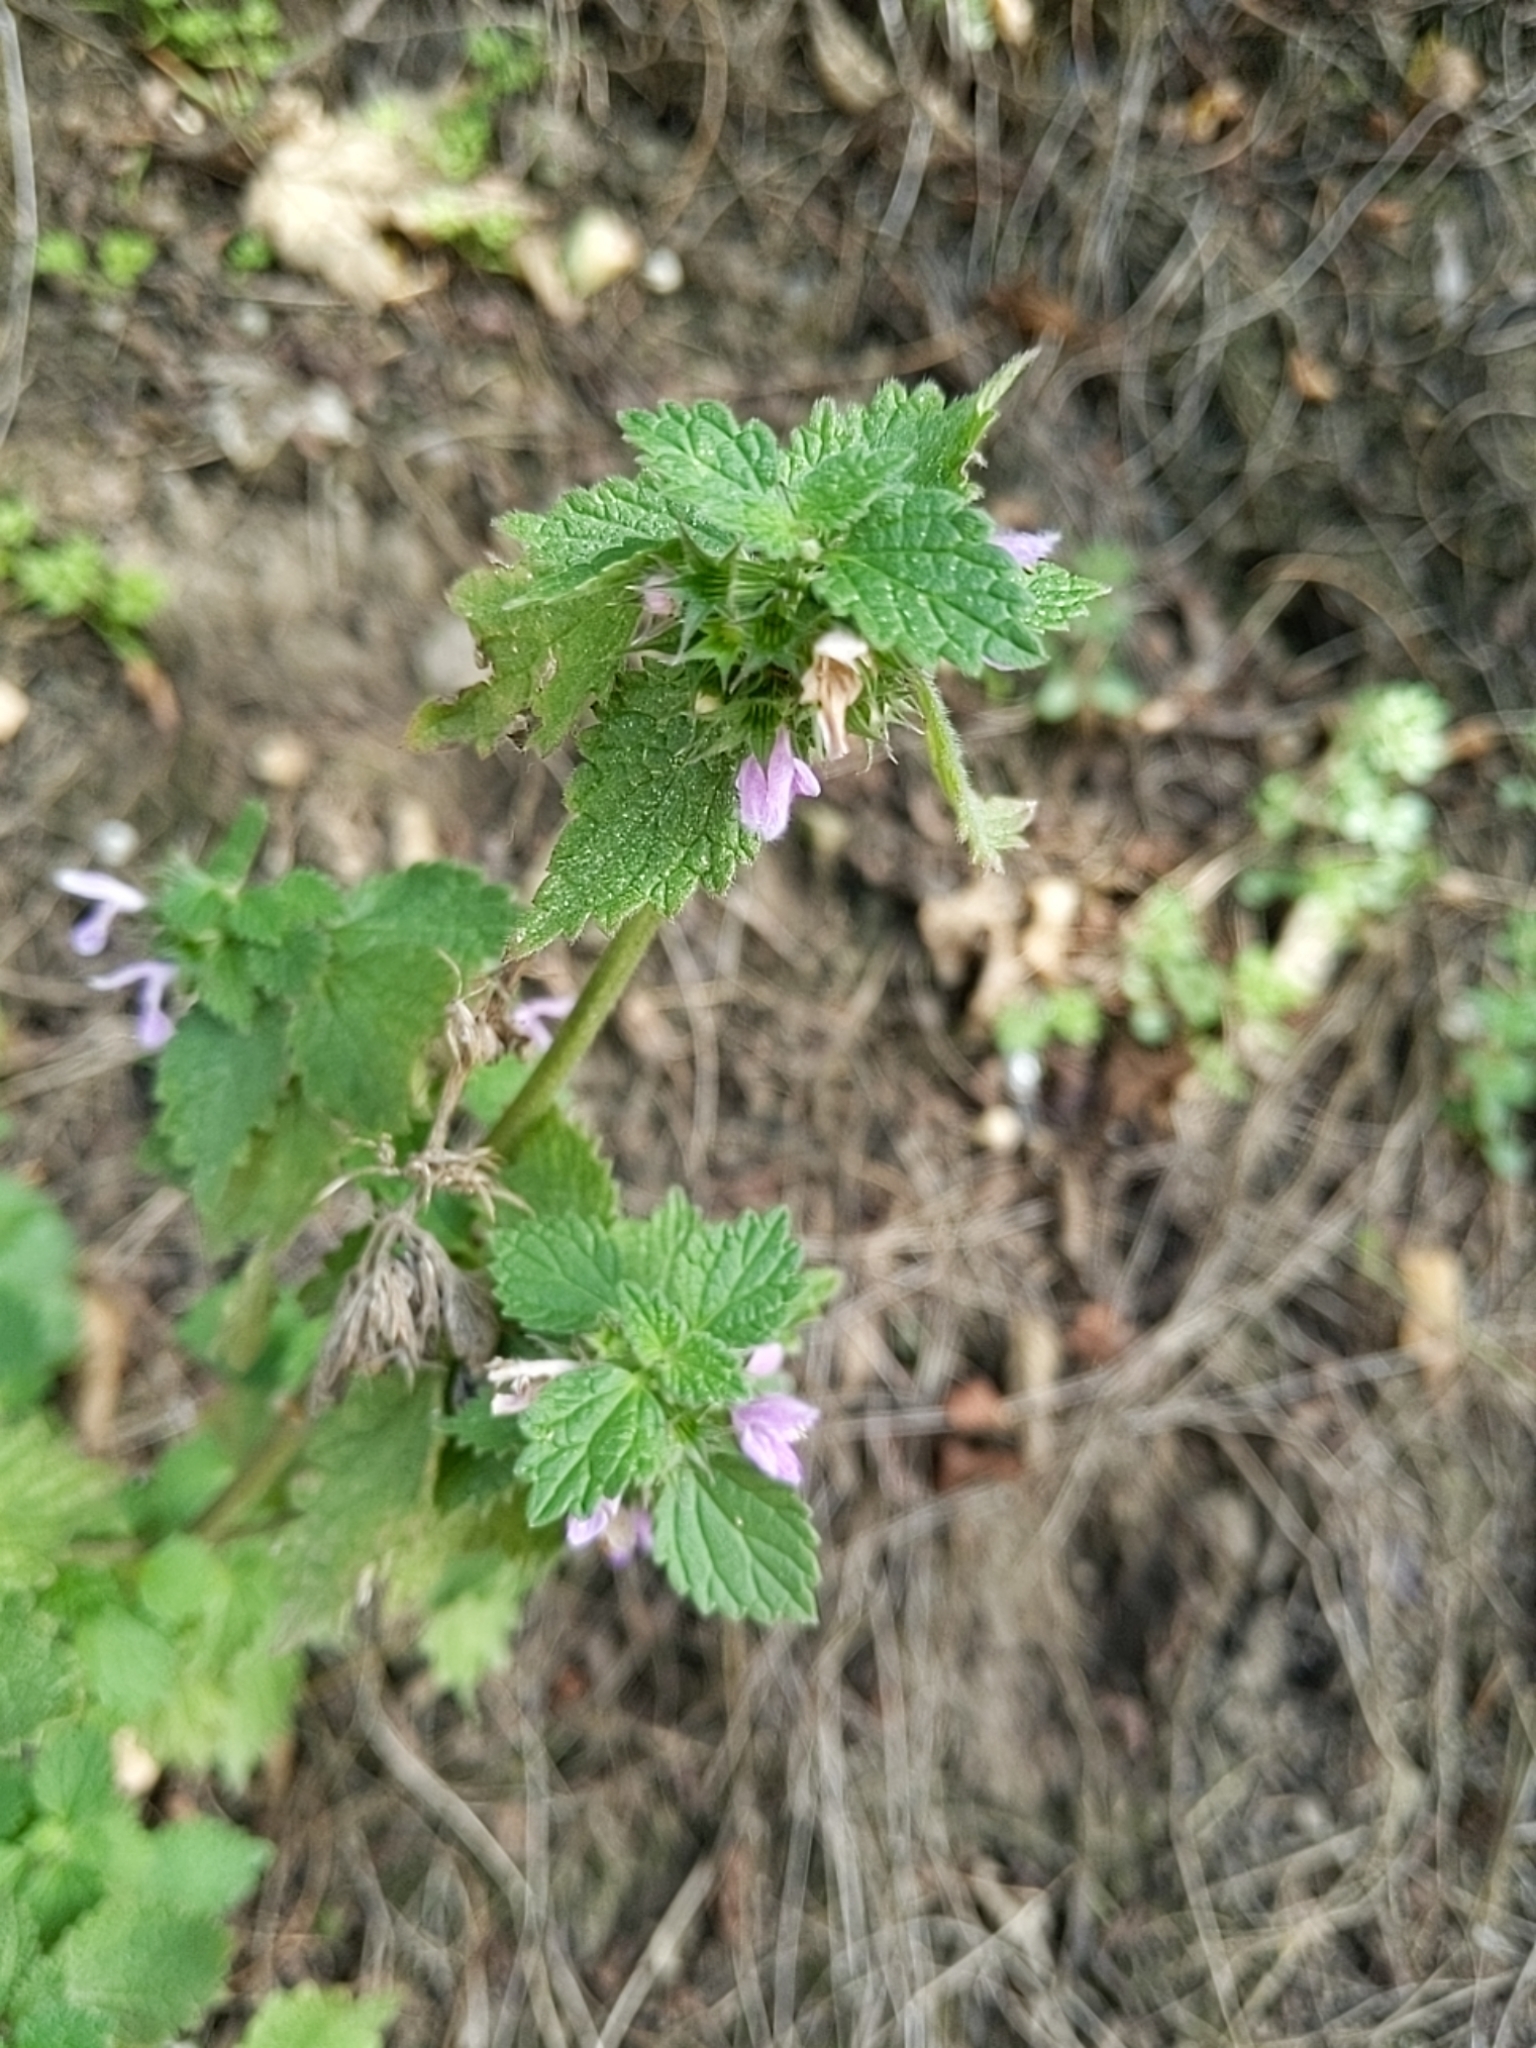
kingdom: Plantae
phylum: Tracheophyta
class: Magnoliopsida
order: Lamiales
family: Lamiaceae
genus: Ballota
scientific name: Ballota nigra
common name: Black horehound
